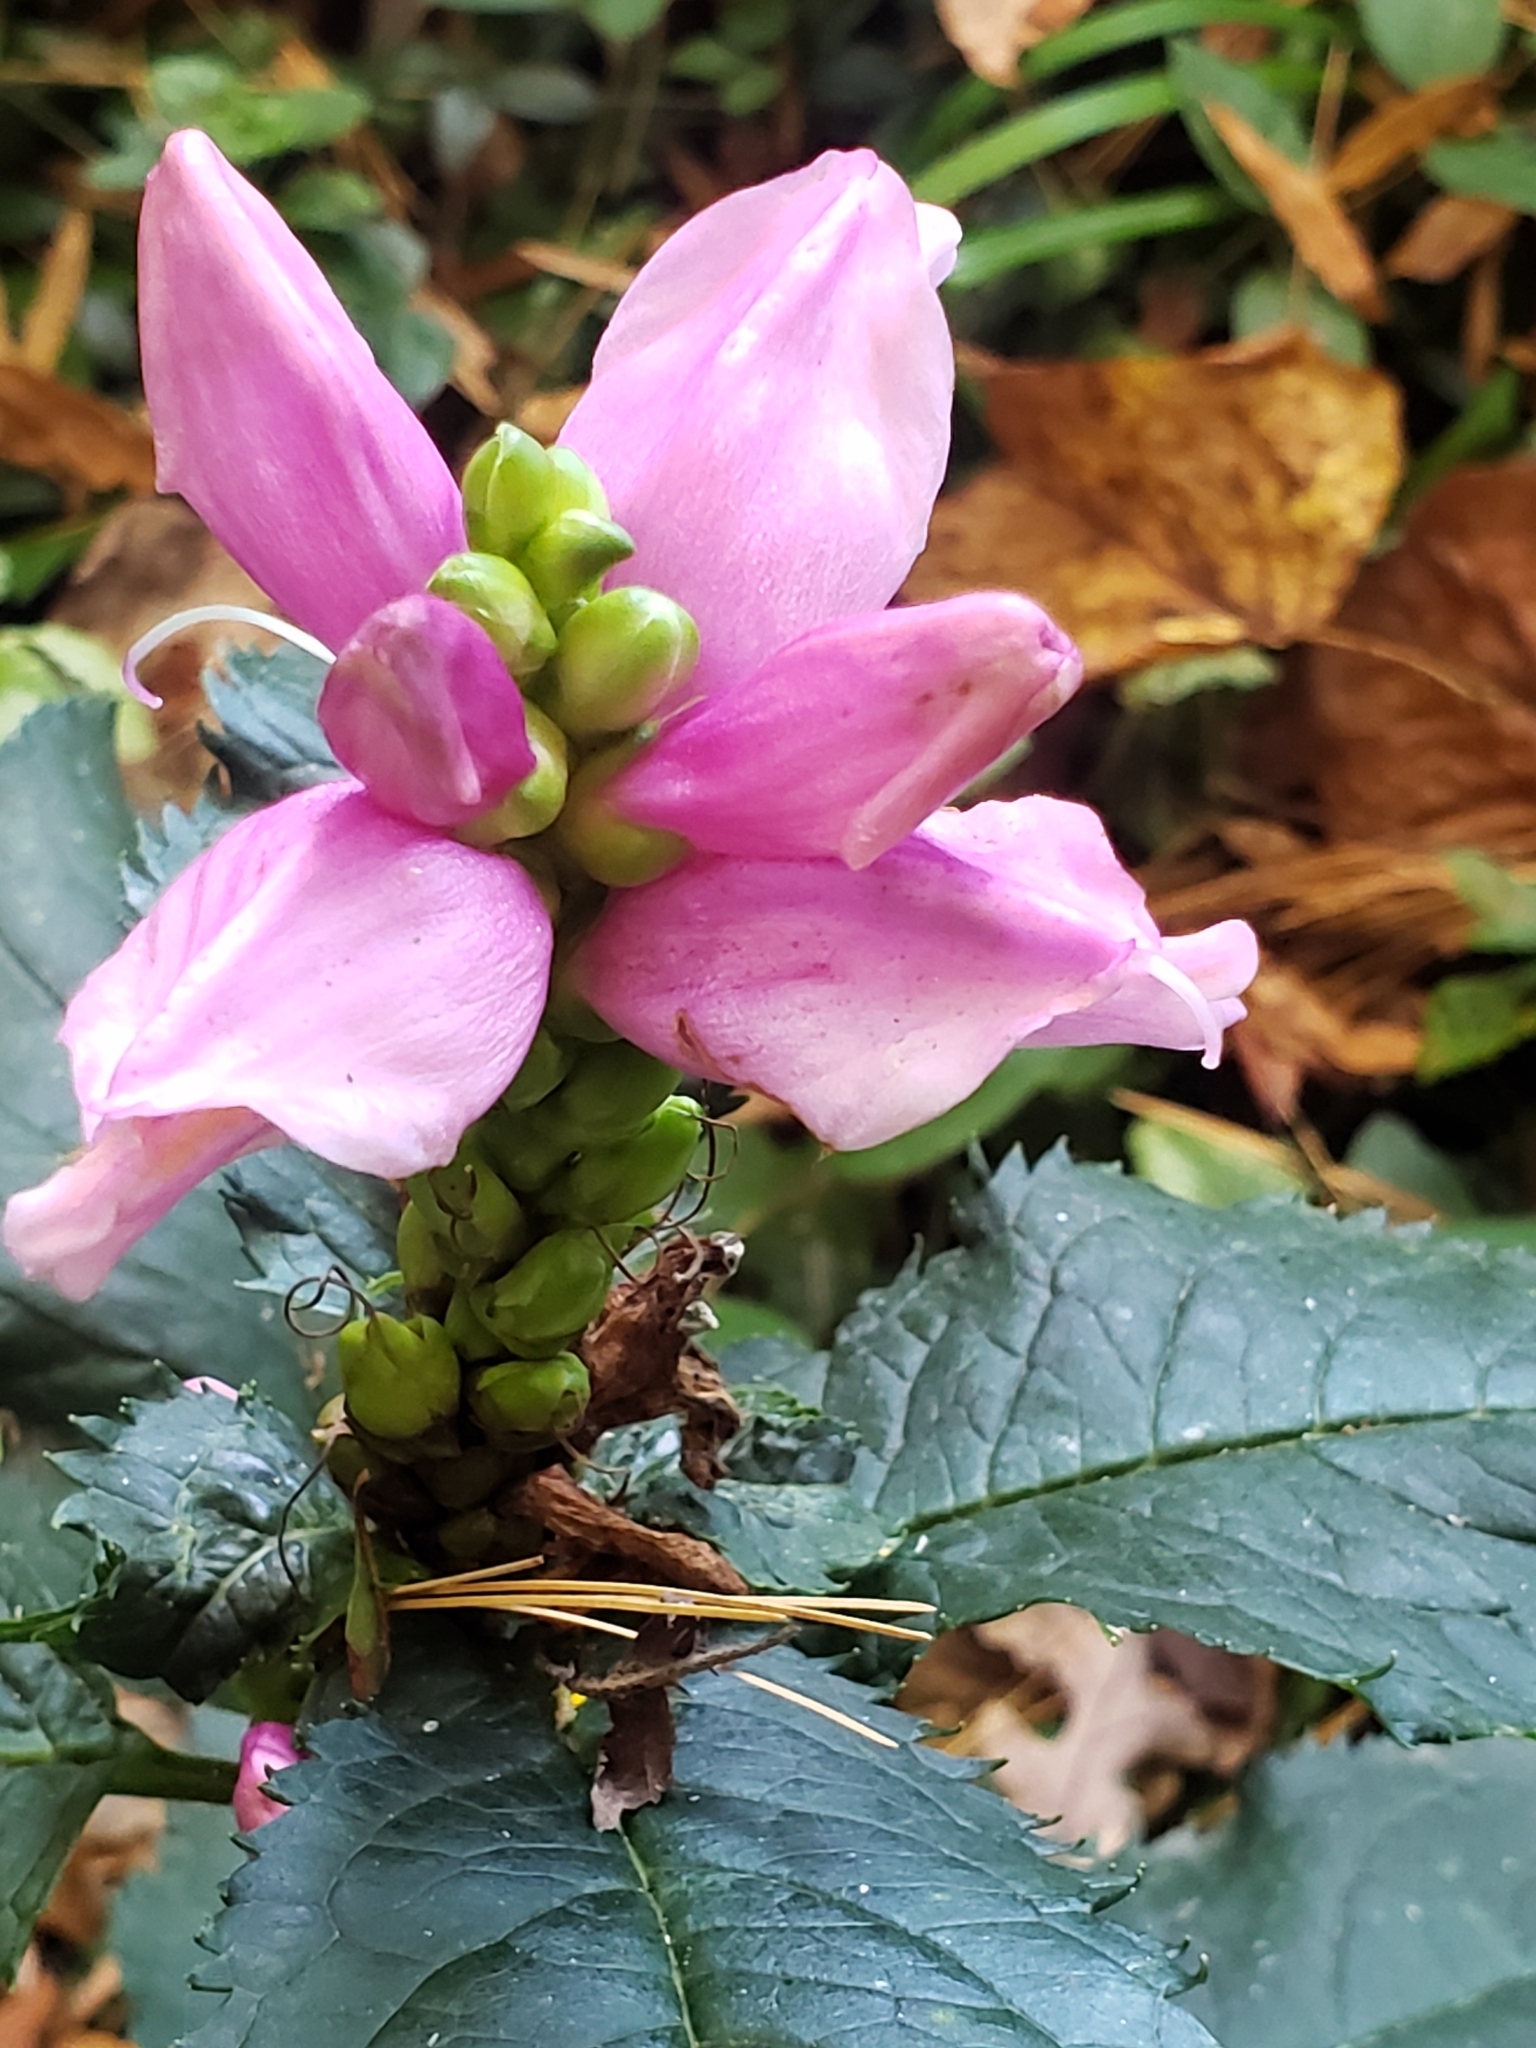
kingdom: Plantae
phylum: Tracheophyta
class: Magnoliopsida
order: Lamiales
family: Plantaginaceae
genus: Chelone
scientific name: Chelone lyonii
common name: Pink turtlehead
